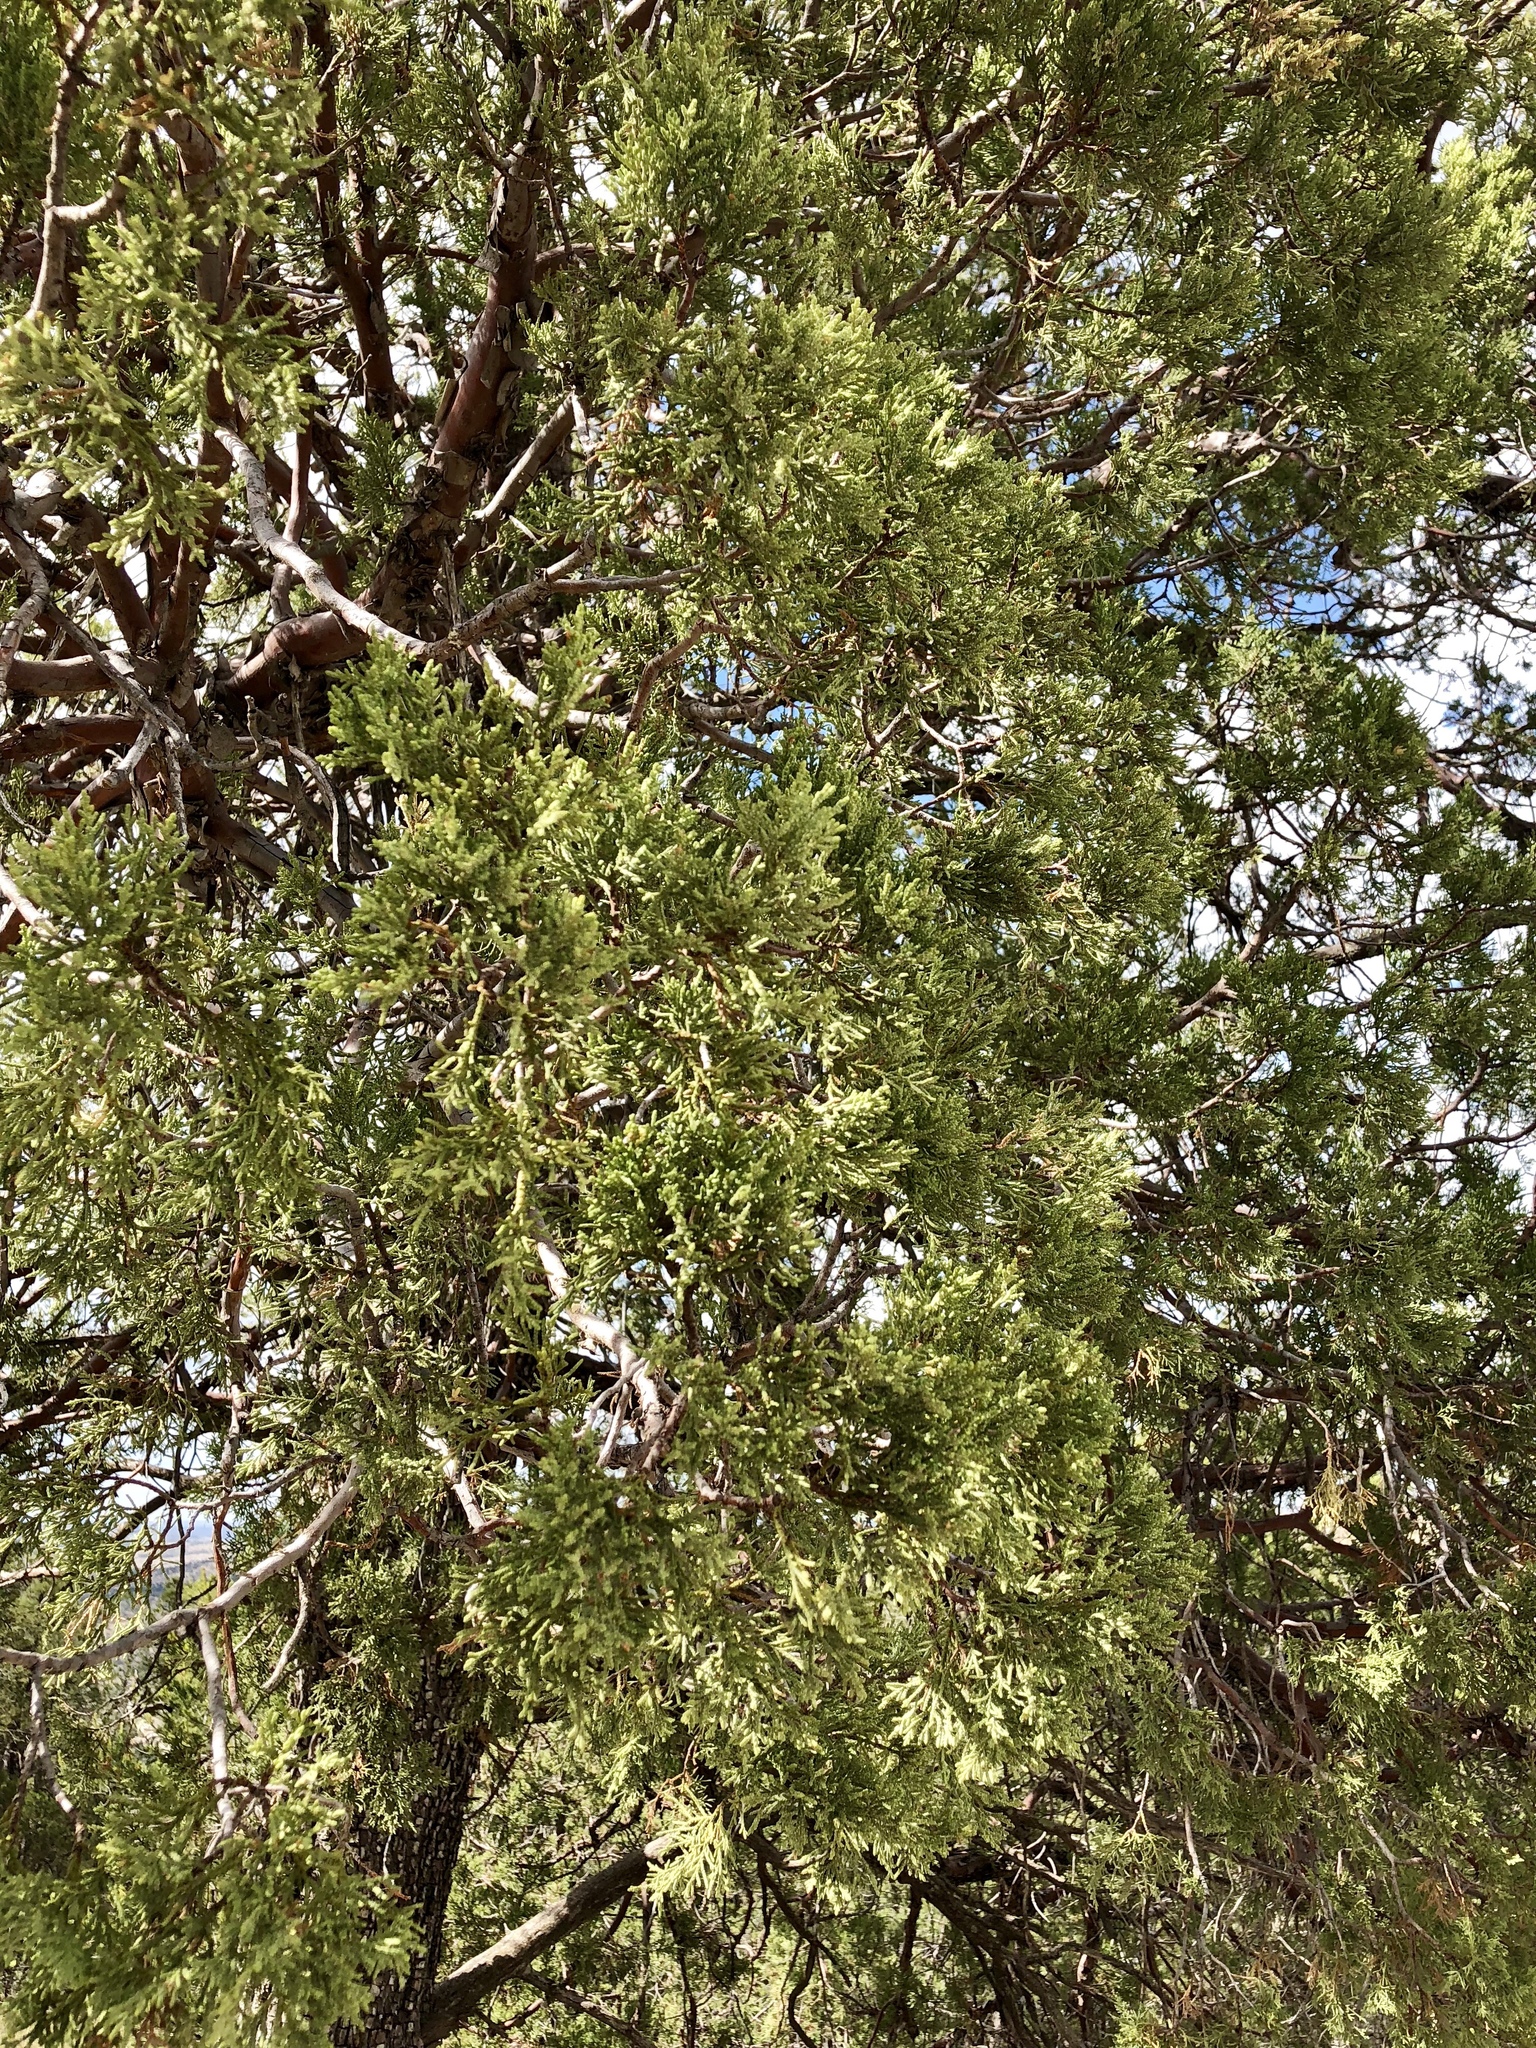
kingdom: Plantae
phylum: Tracheophyta
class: Pinopsida
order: Pinales
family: Cupressaceae
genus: Juniperus
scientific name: Juniperus deppeana
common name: Alligator juniper
